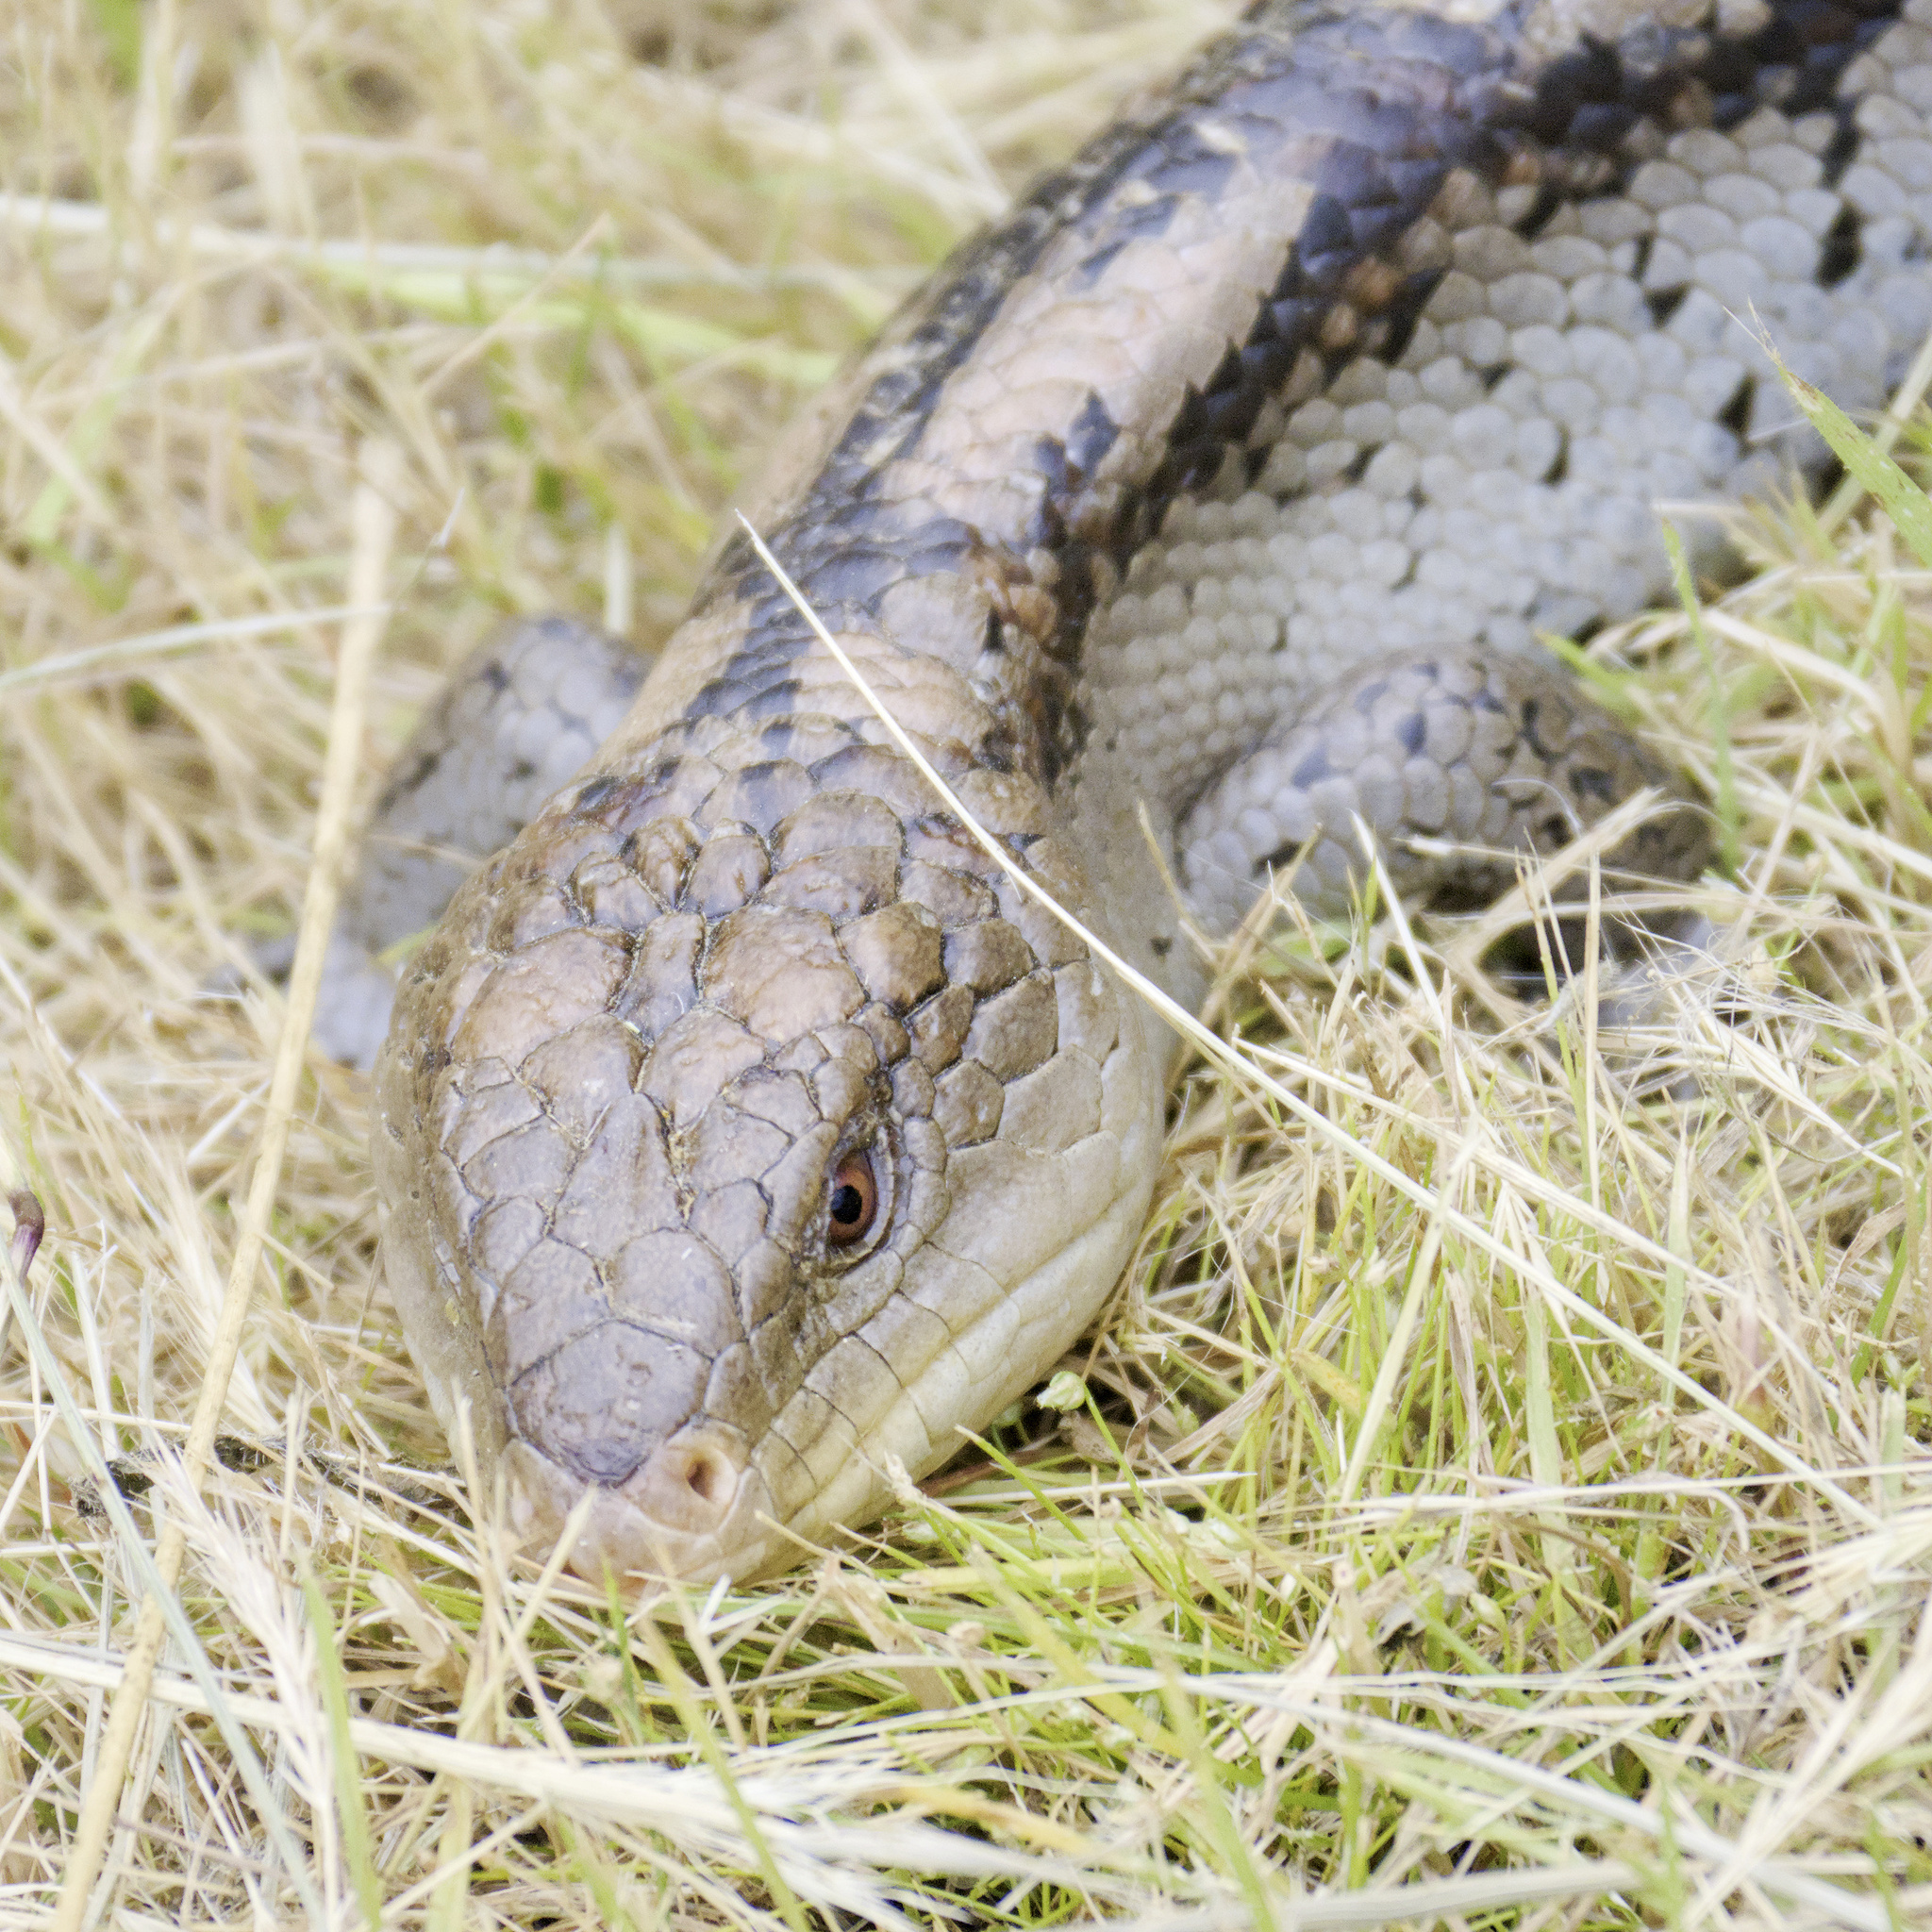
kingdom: Animalia
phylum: Chordata
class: Squamata
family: Scincidae
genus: Tiliqua
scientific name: Tiliqua nigrolutea
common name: Blotched blue-tongued lizard
